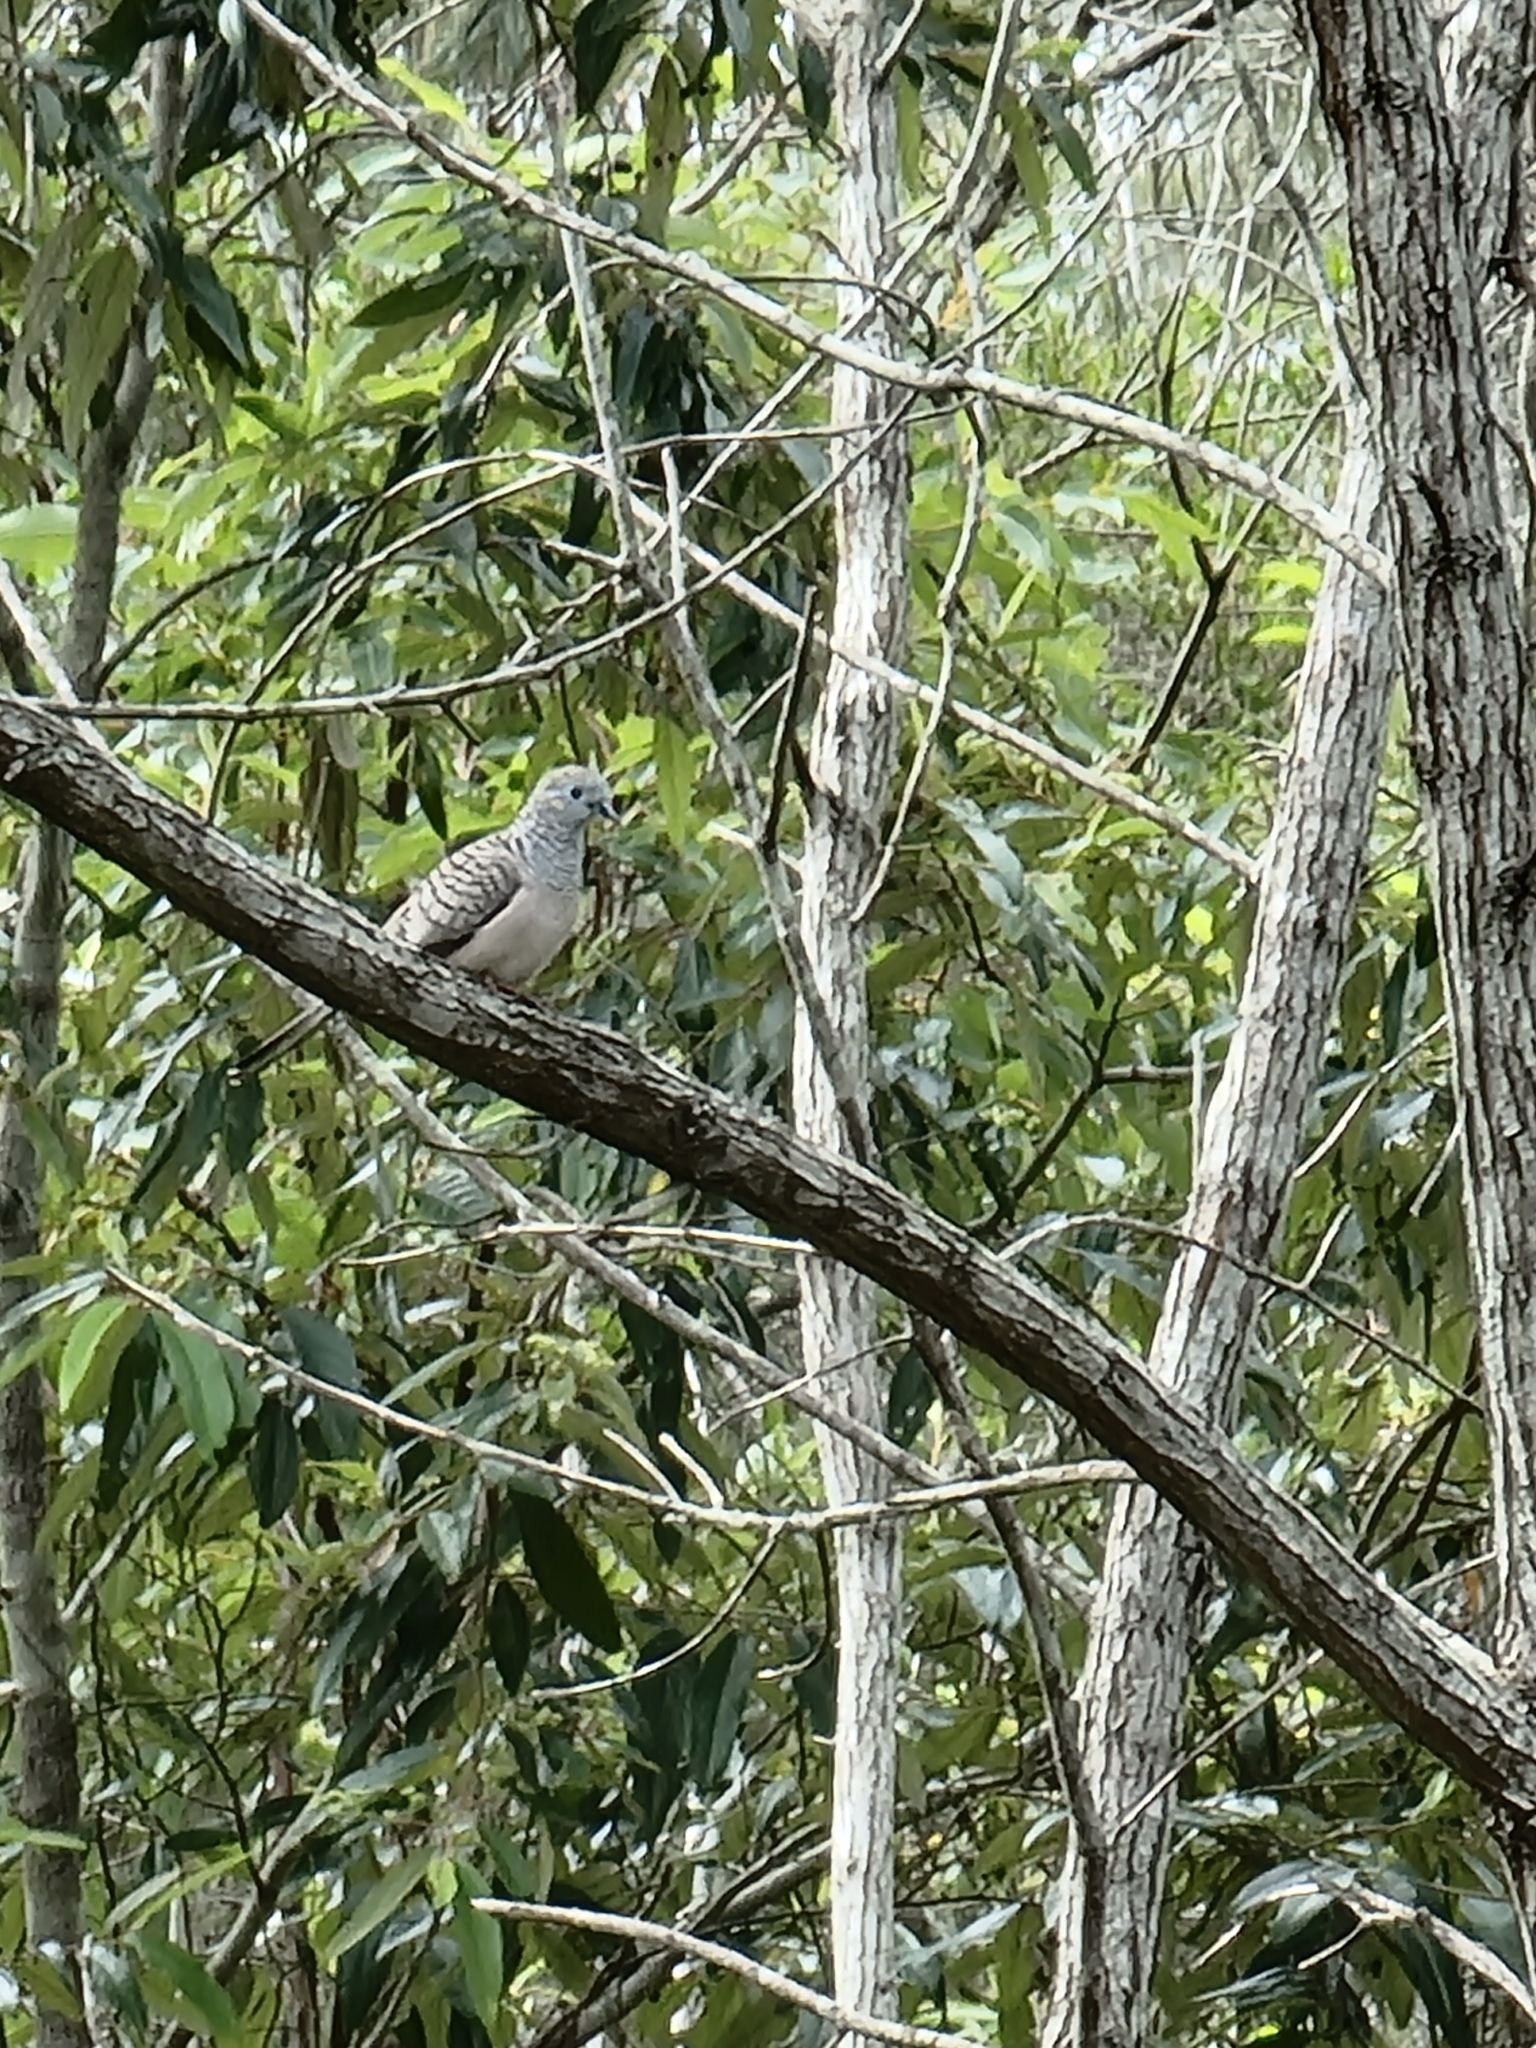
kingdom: Animalia
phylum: Chordata
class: Aves
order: Columbiformes
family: Columbidae
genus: Geopelia
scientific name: Geopelia placida
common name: Peaceful dove
